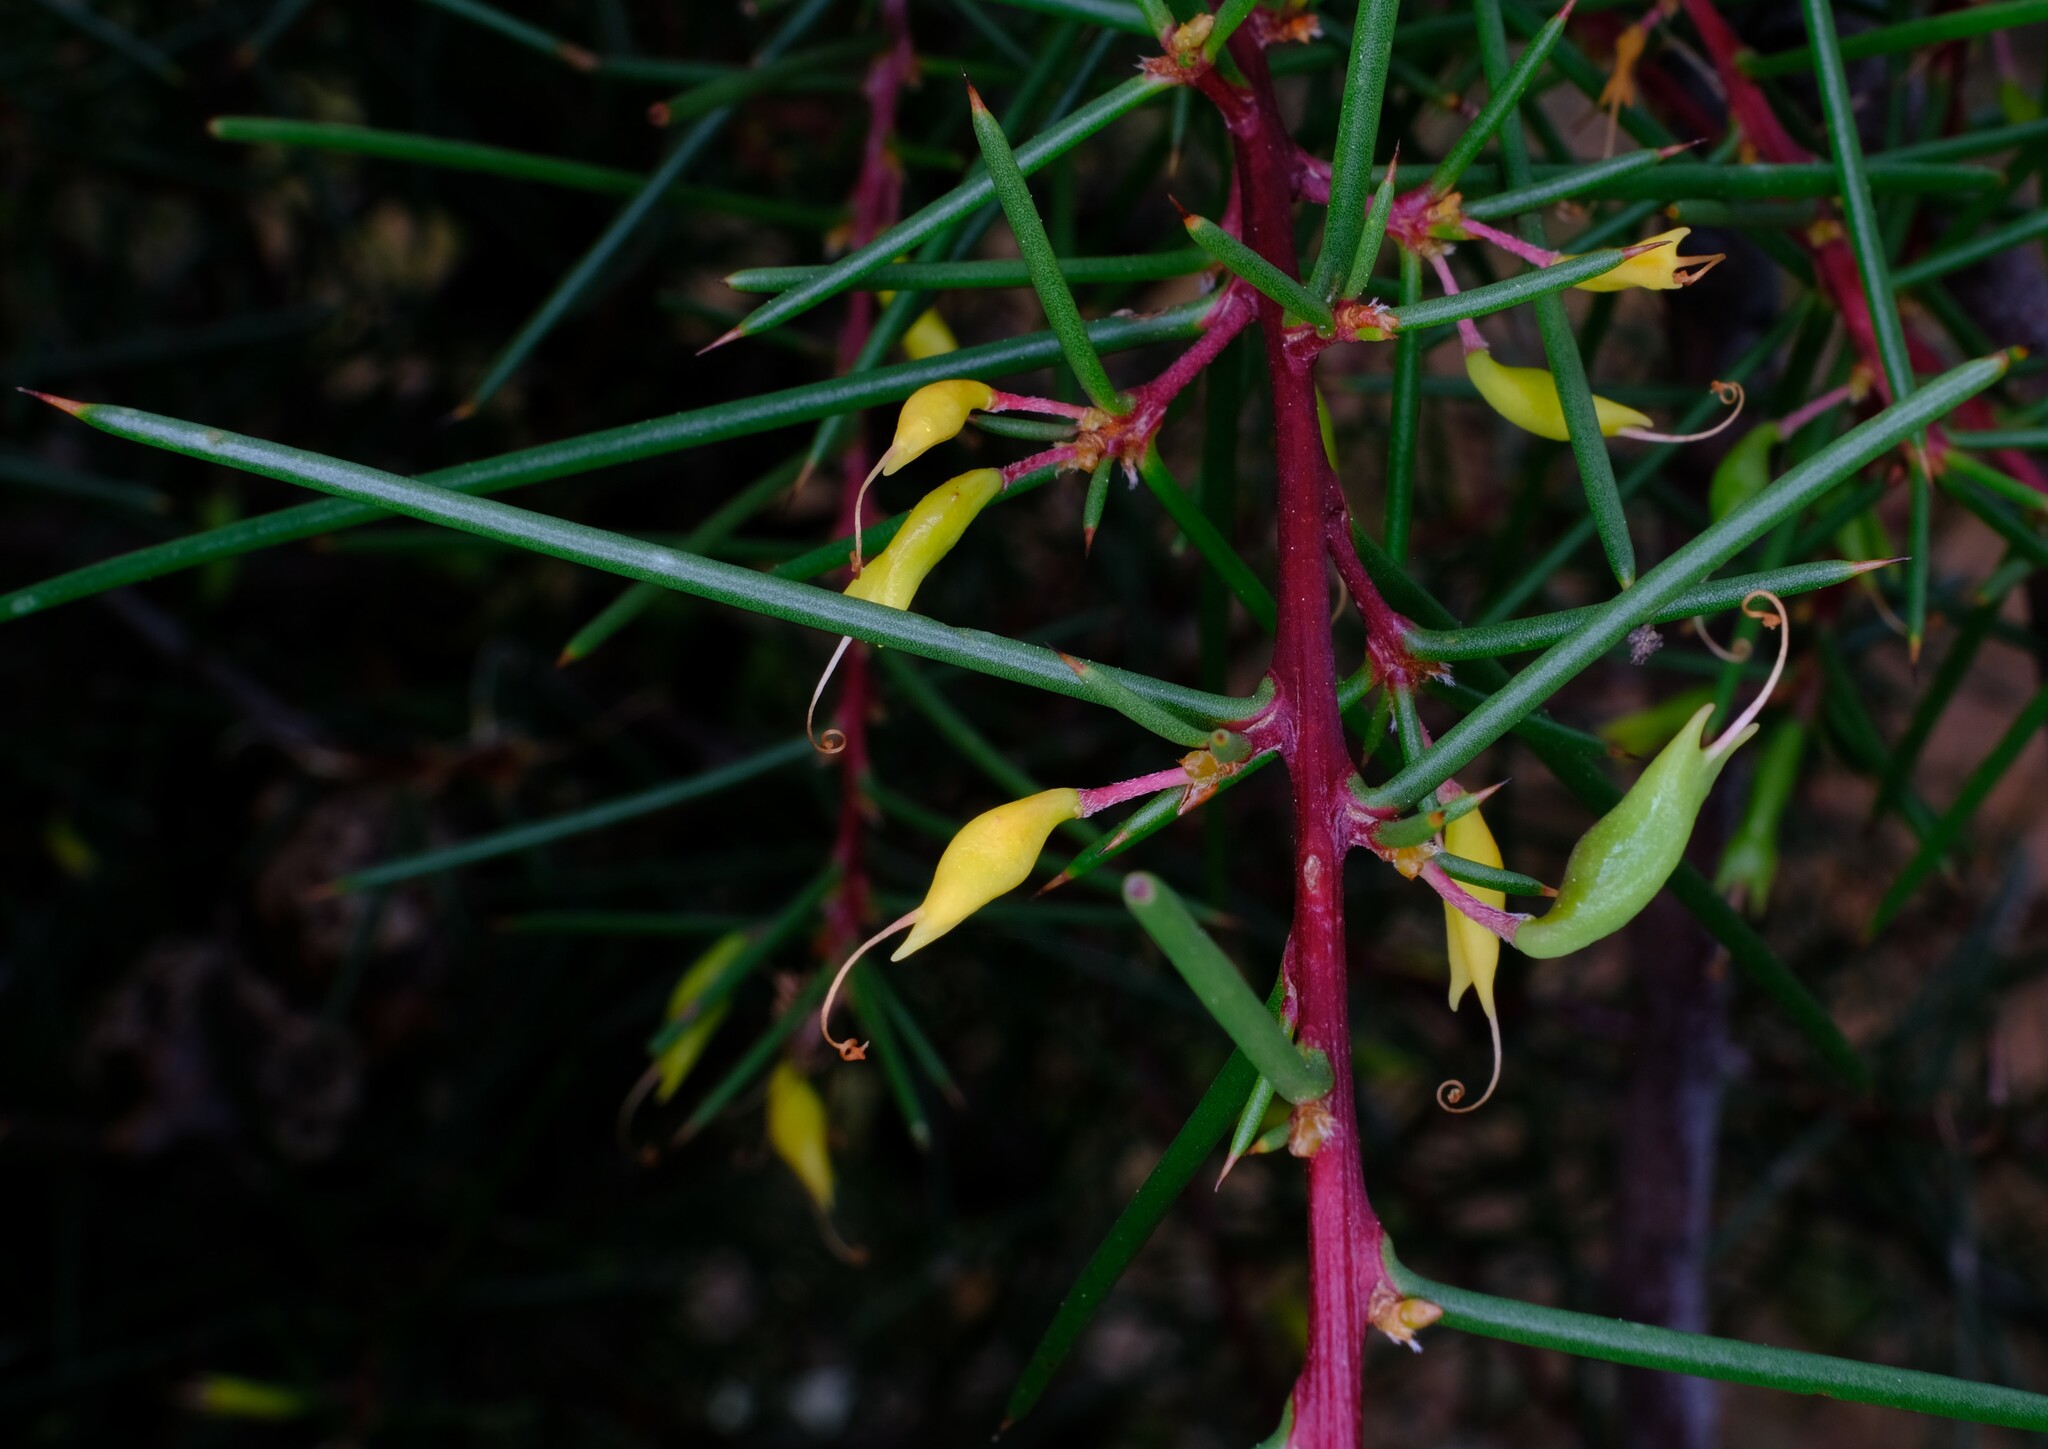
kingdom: Plantae
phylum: Tracheophyta
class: Magnoliopsida
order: Proteales
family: Proteaceae
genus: Hakea
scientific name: Hakea decurrens
